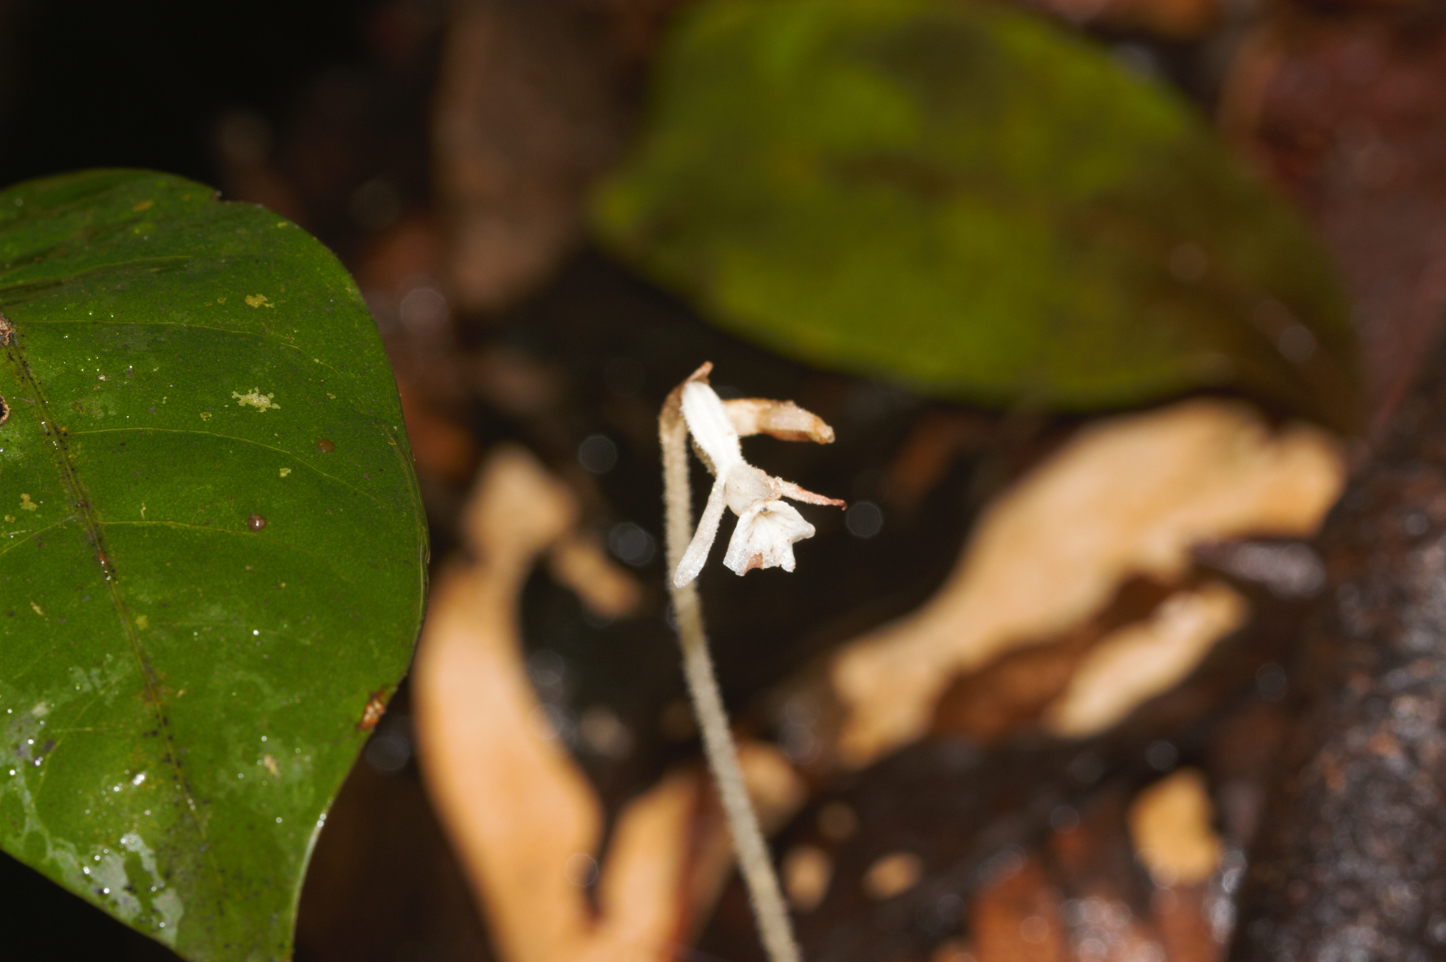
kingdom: Plantae
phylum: Tracheophyta
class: Liliopsida
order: Asparagales
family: Orchidaceae
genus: Degranvillea
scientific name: Degranvillea dermaptera
